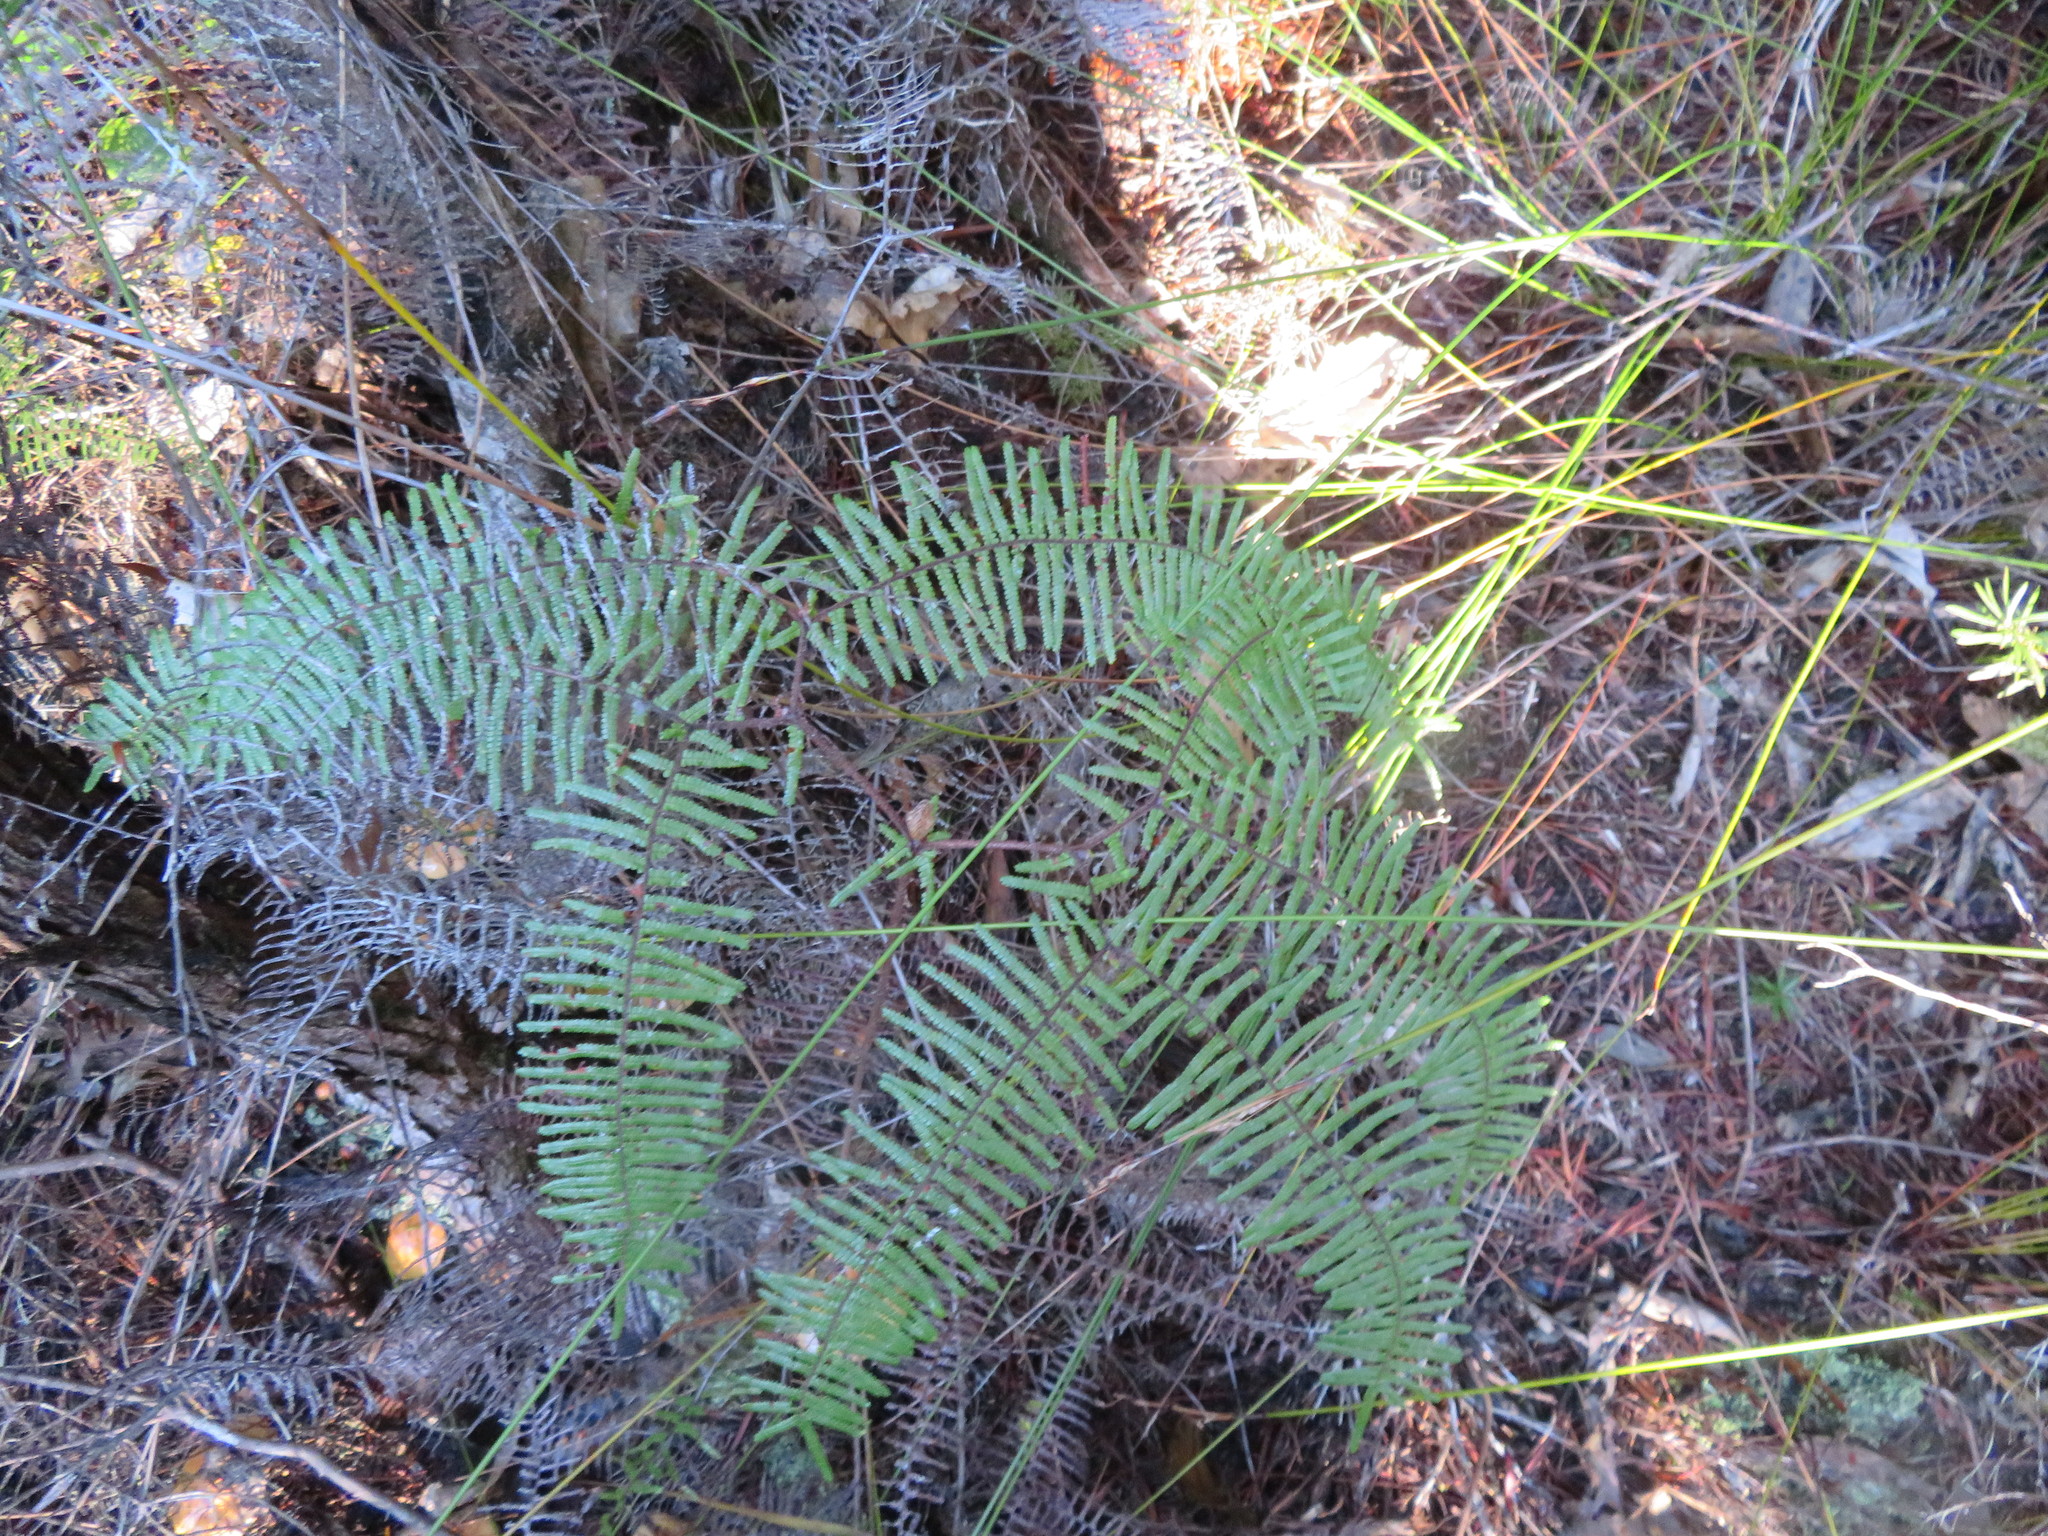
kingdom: Plantae
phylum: Tracheophyta
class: Polypodiopsida
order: Gleicheniales
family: Gleicheniaceae
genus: Gleichenia
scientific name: Gleichenia microphylla
